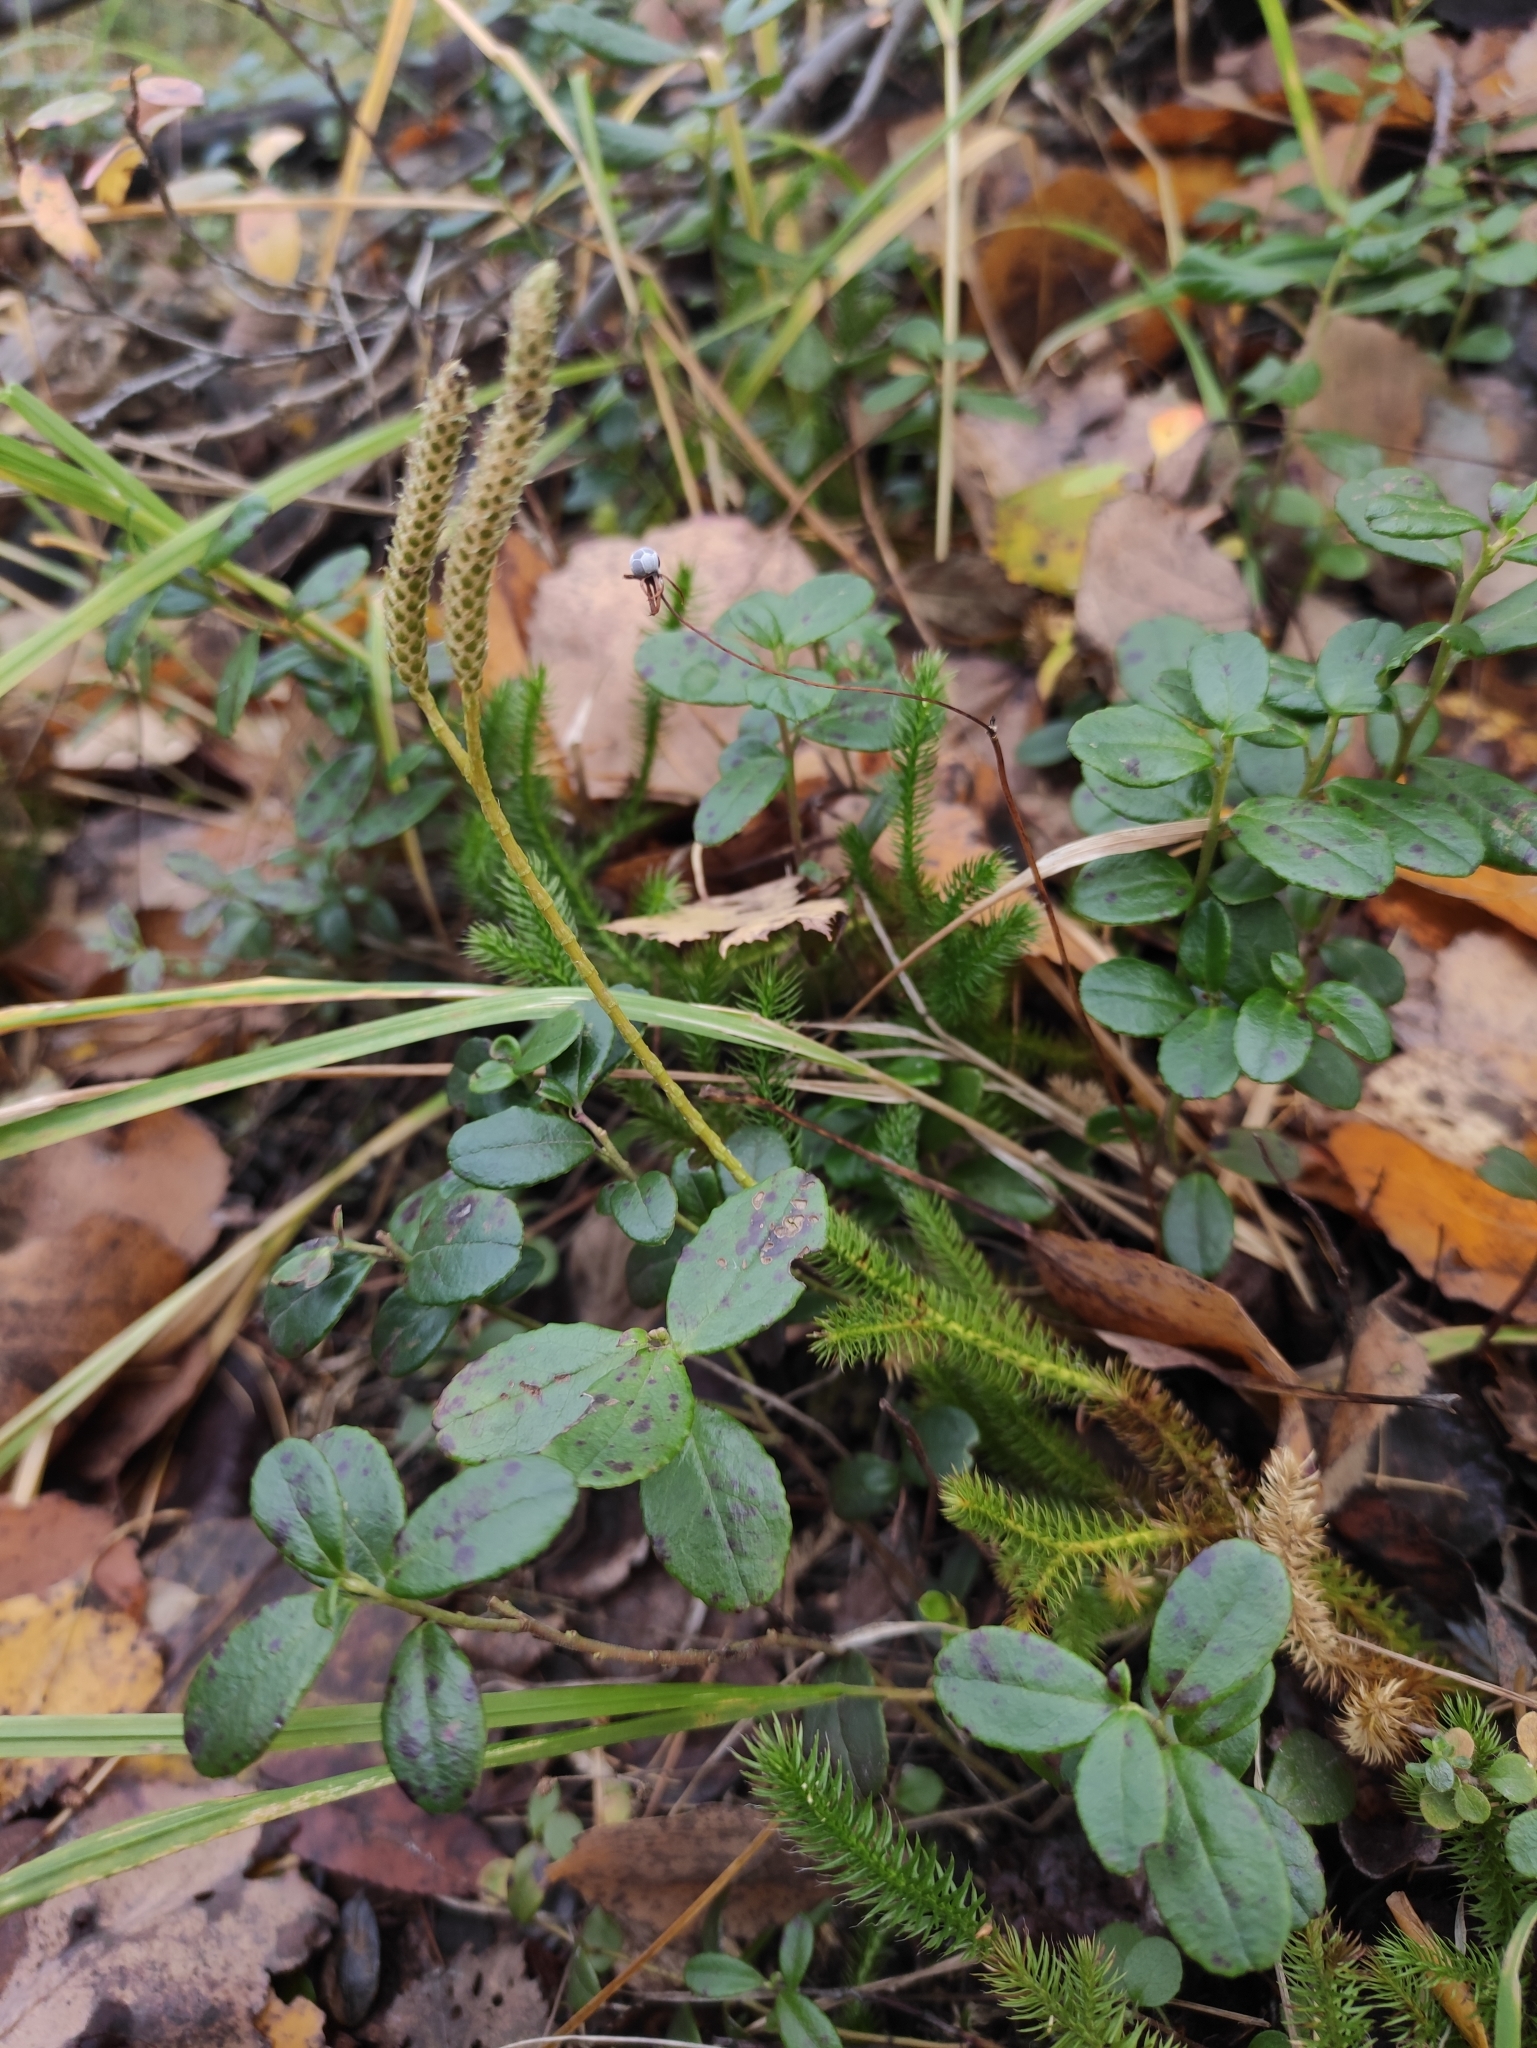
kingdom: Plantae
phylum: Tracheophyta
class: Lycopodiopsida
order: Lycopodiales
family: Lycopodiaceae
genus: Lycopodium
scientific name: Lycopodium clavatum
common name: Stag's-horn clubmoss
